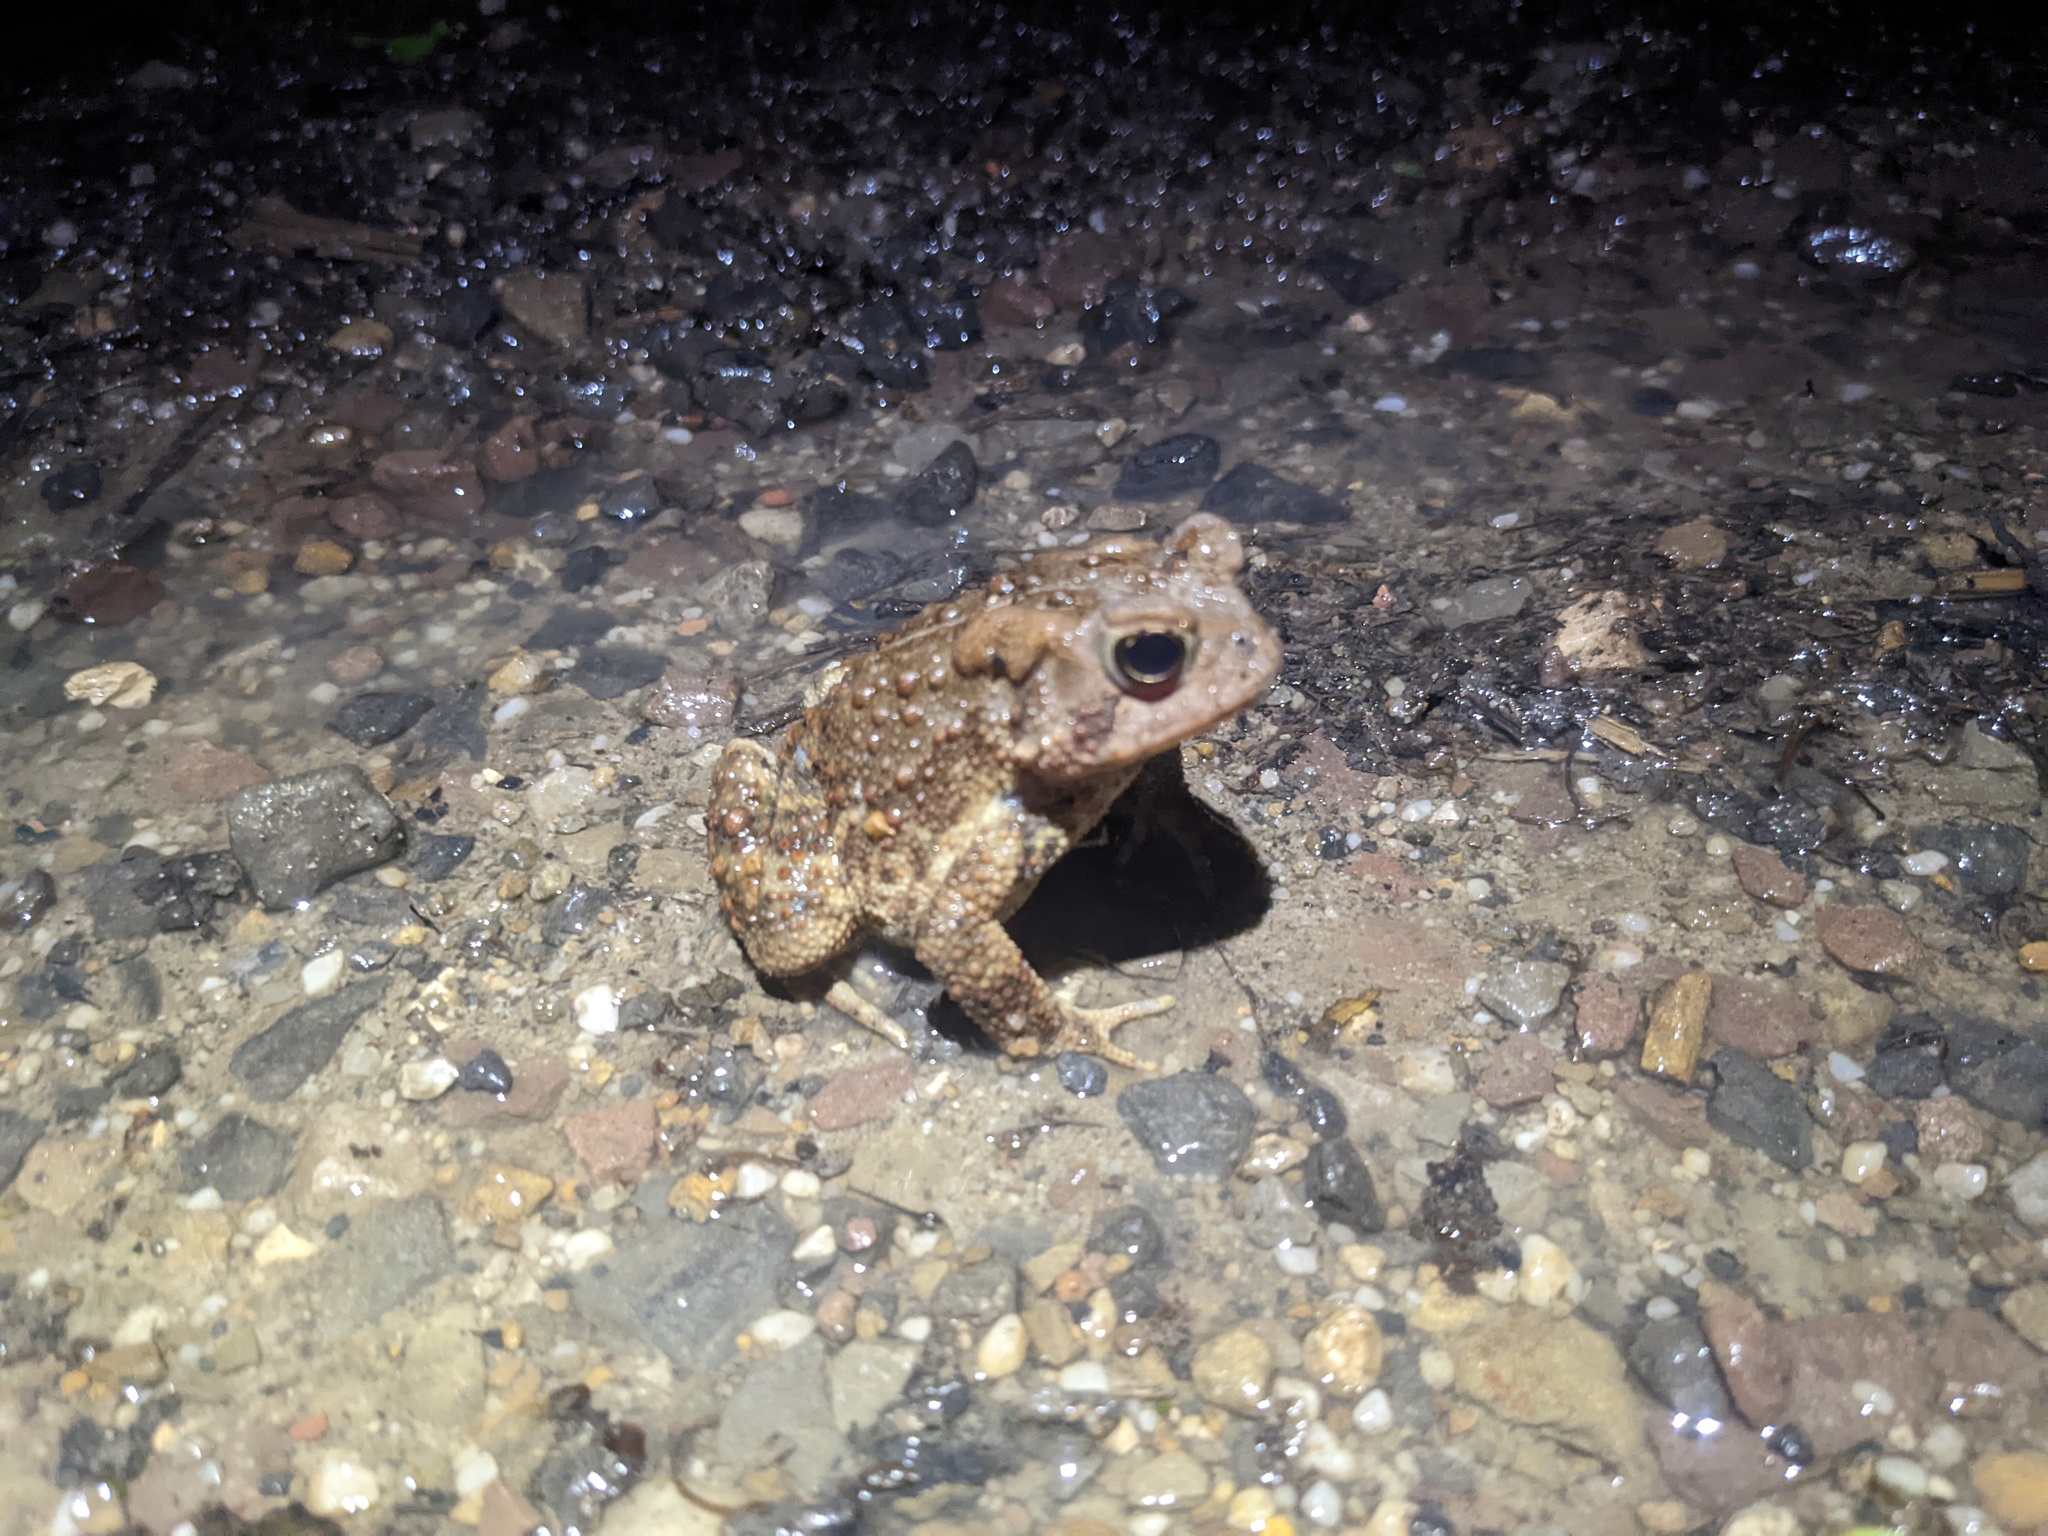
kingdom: Animalia
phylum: Chordata
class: Amphibia
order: Anura
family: Bufonidae
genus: Anaxyrus
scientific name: Anaxyrus americanus
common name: American toad
